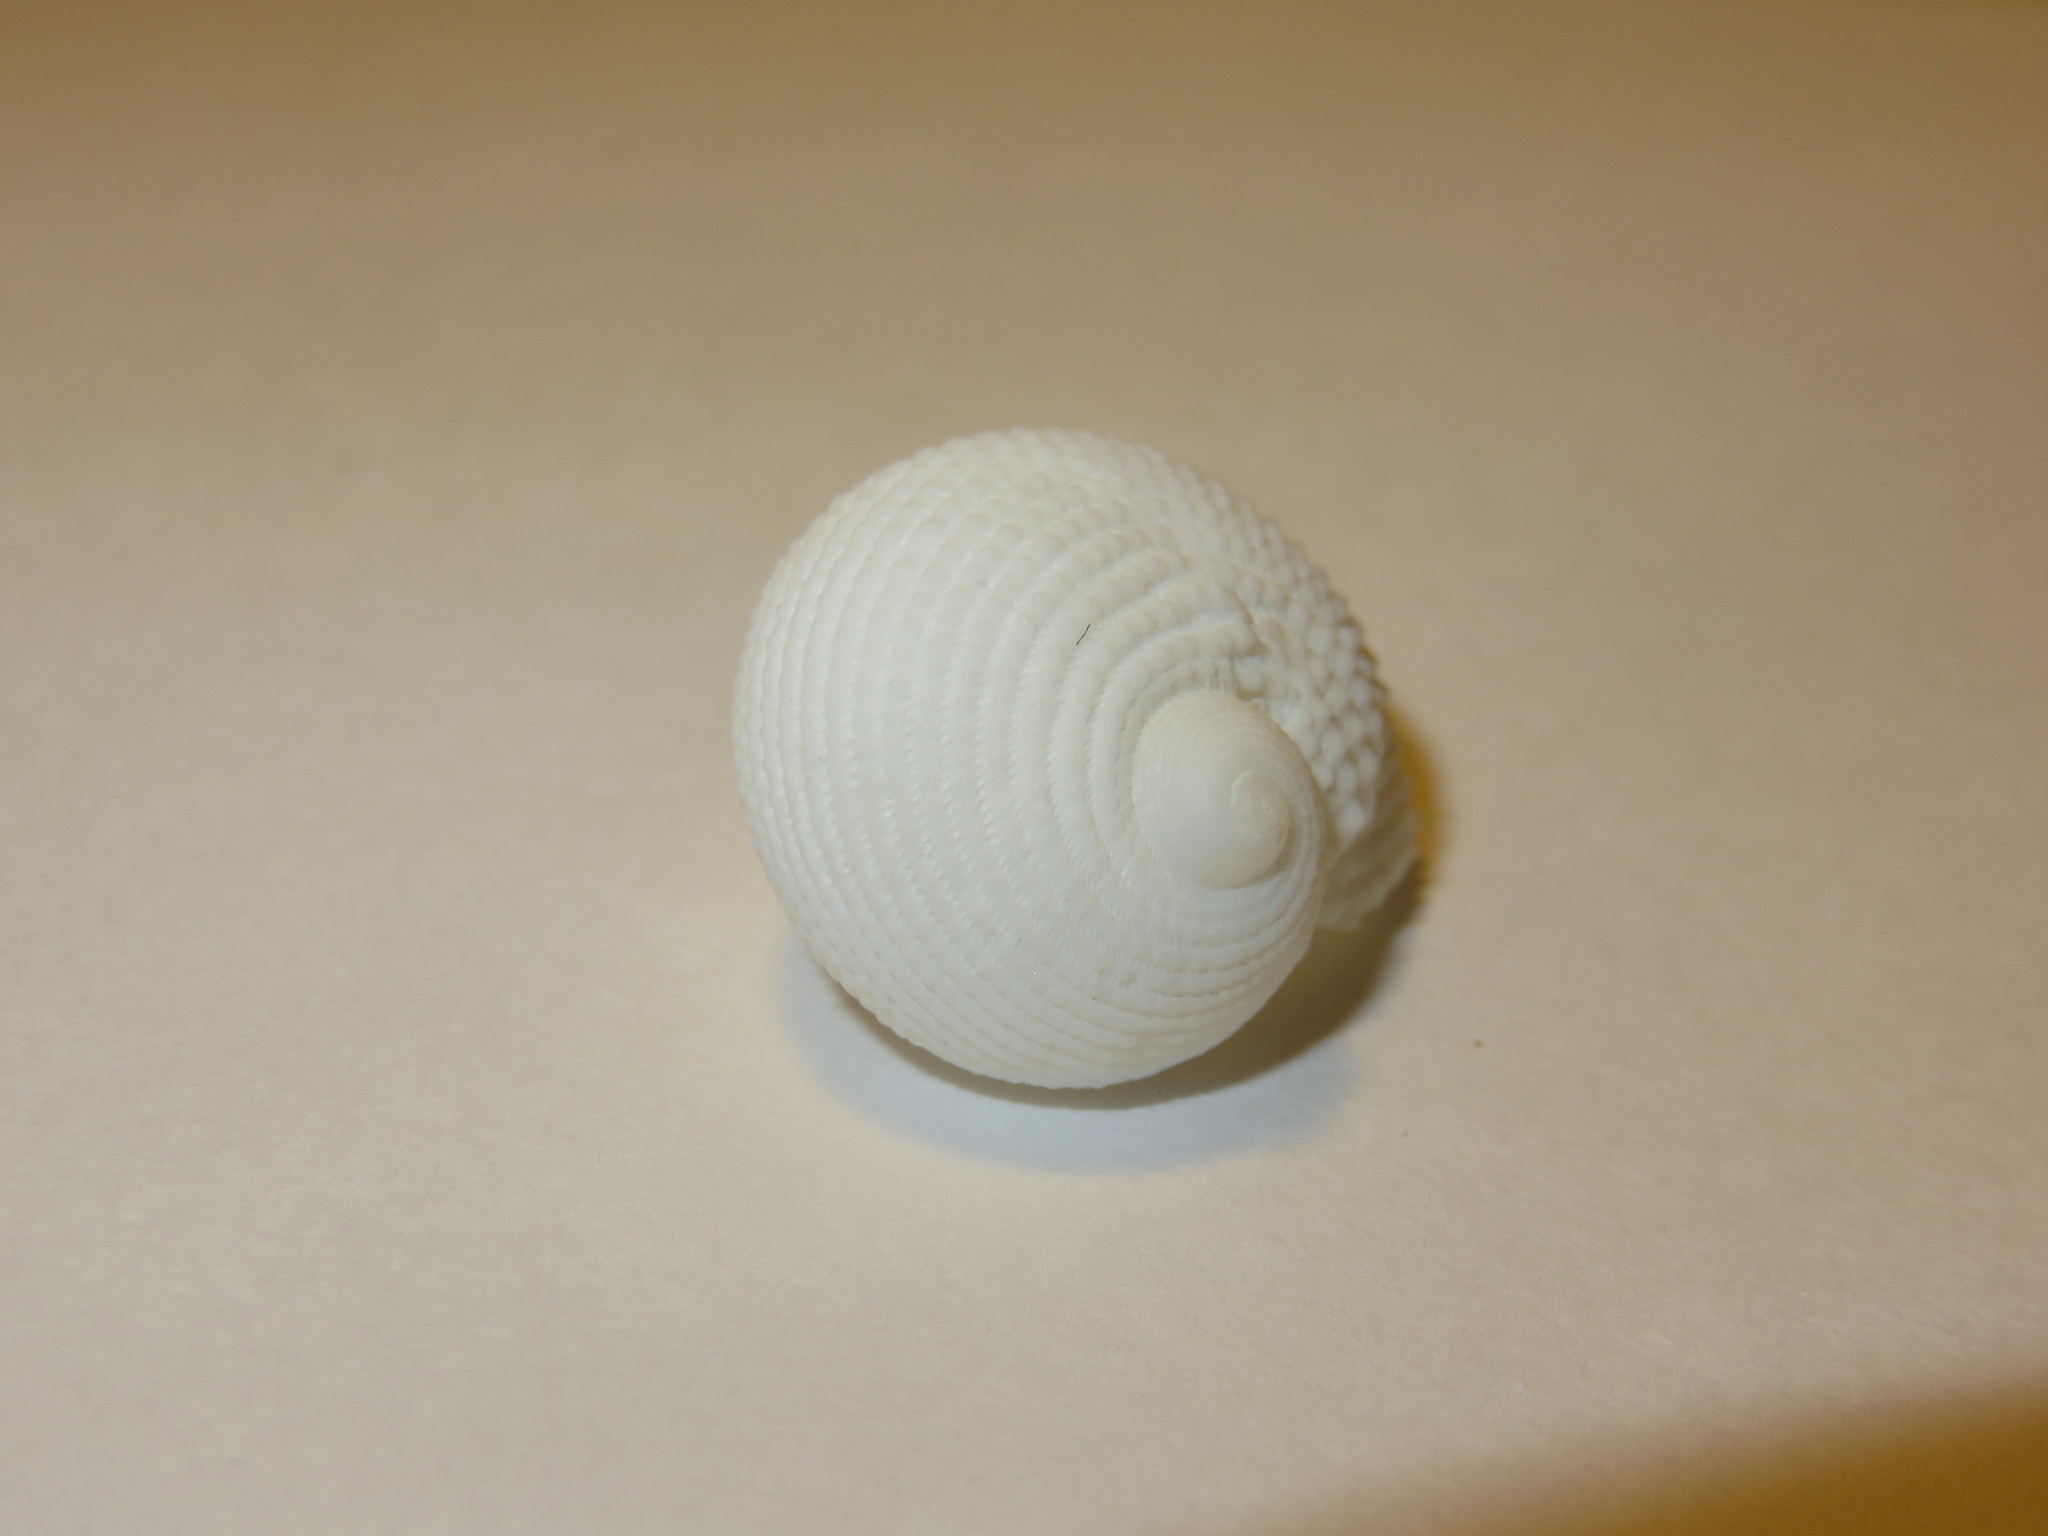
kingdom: Animalia
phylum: Mollusca
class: Gastropoda
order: Cycloneritida
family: Neritopsidae
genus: Neritopsis
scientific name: Neritopsis radula
